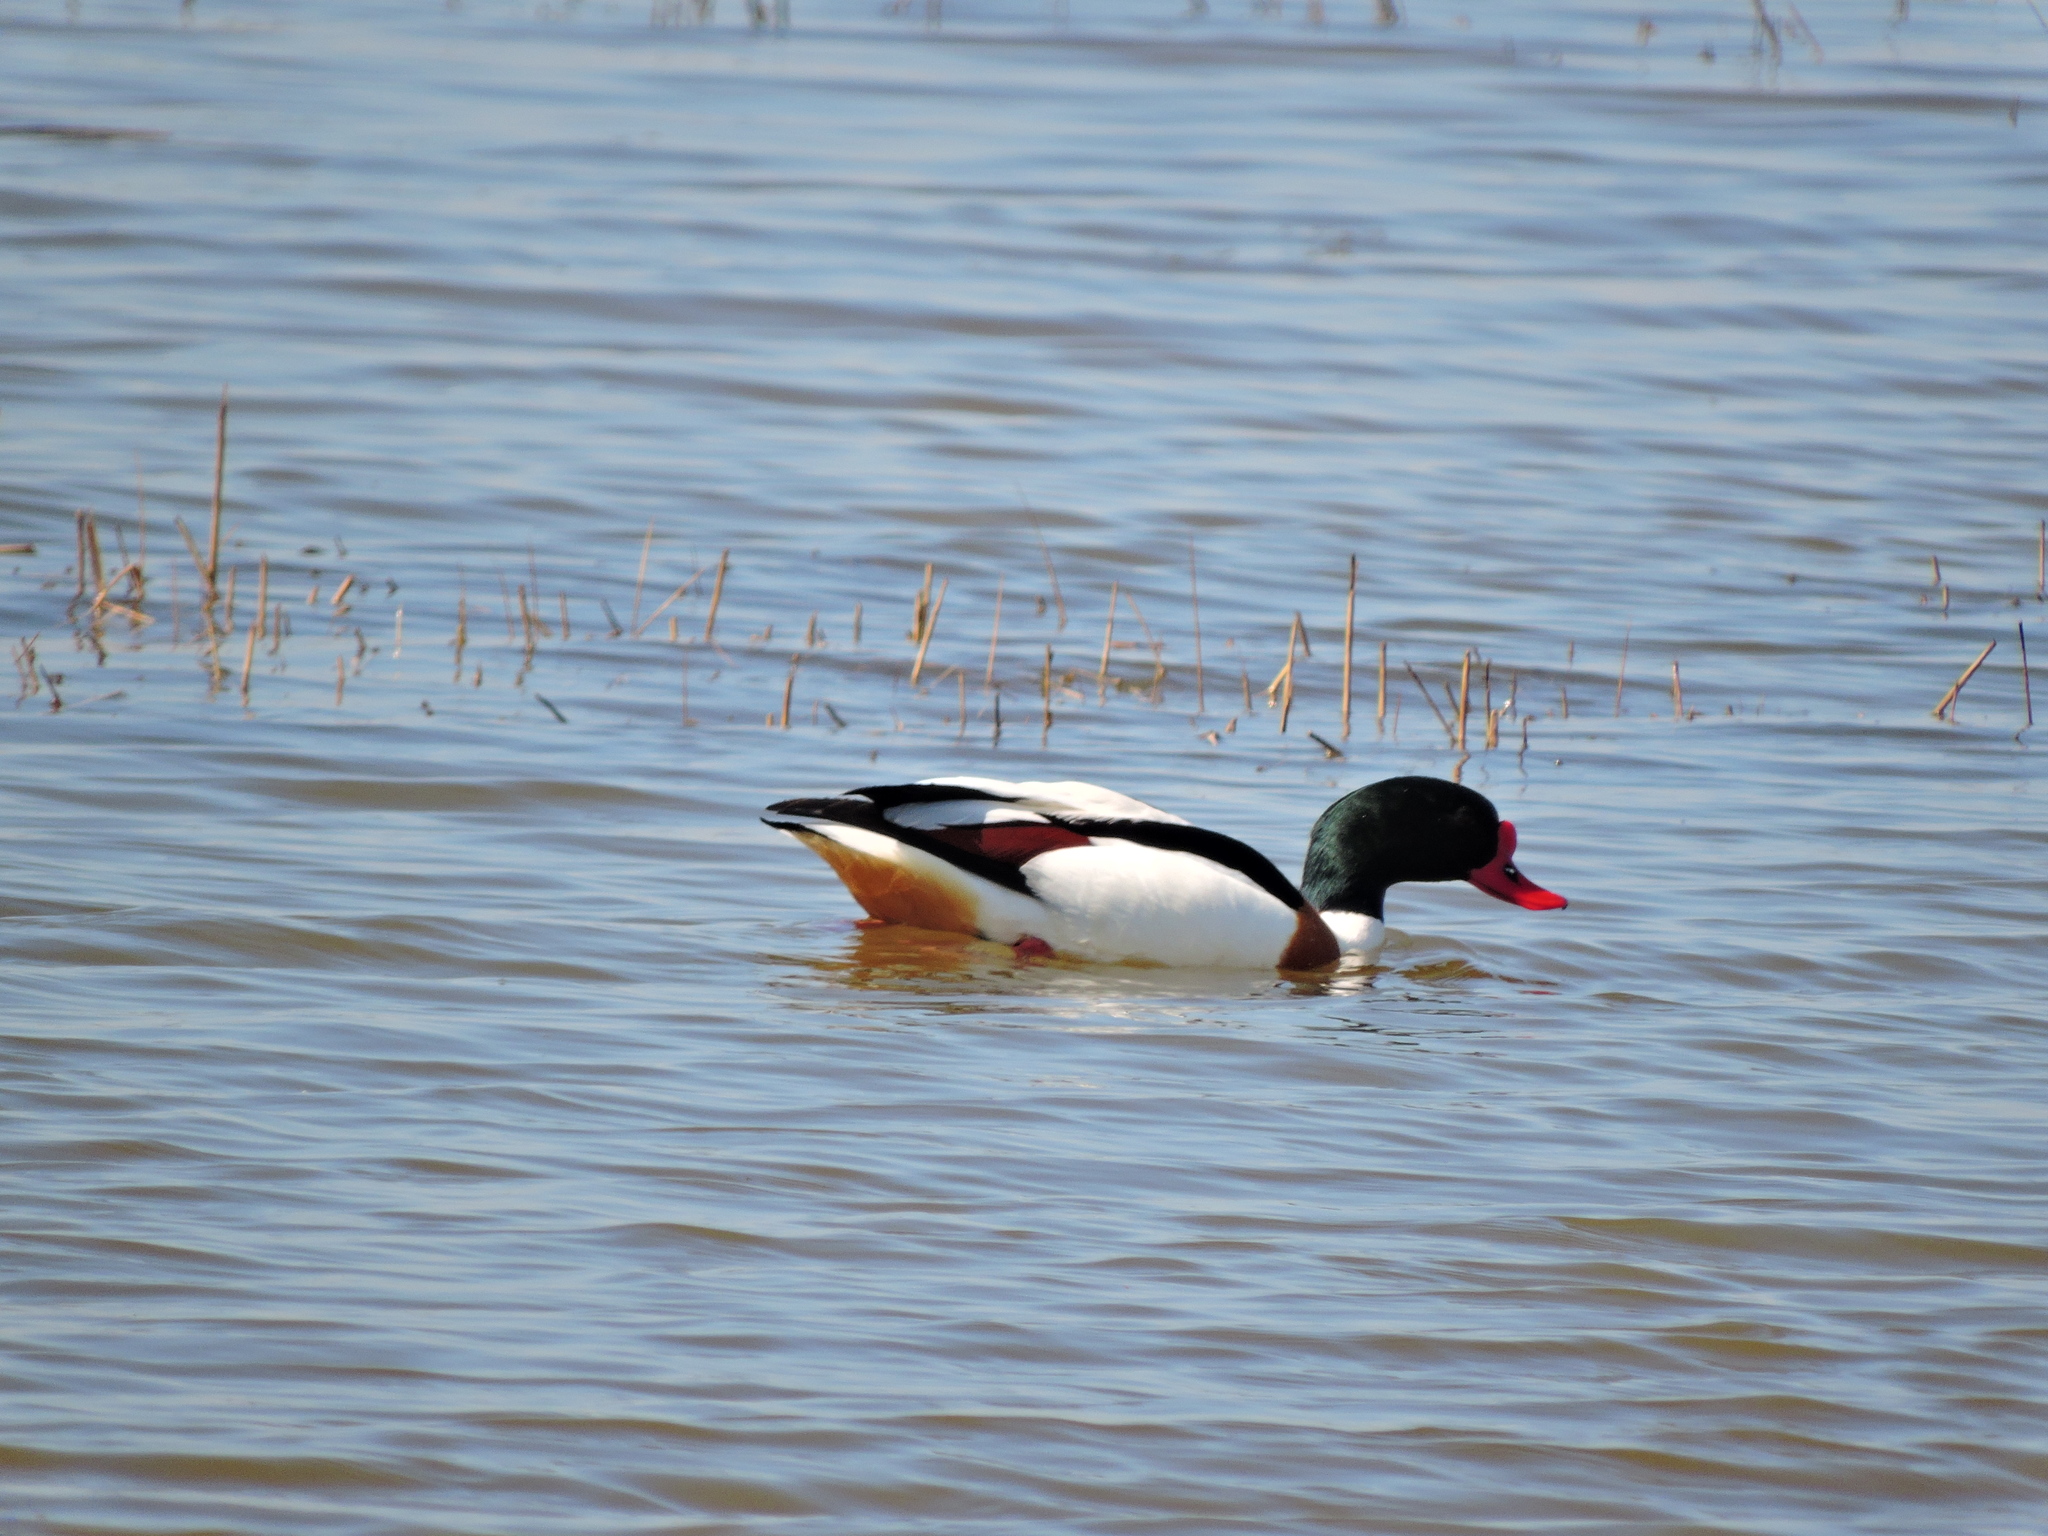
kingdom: Animalia
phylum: Chordata
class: Aves
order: Anseriformes
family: Anatidae
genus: Tadorna
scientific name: Tadorna tadorna
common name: Common shelduck
